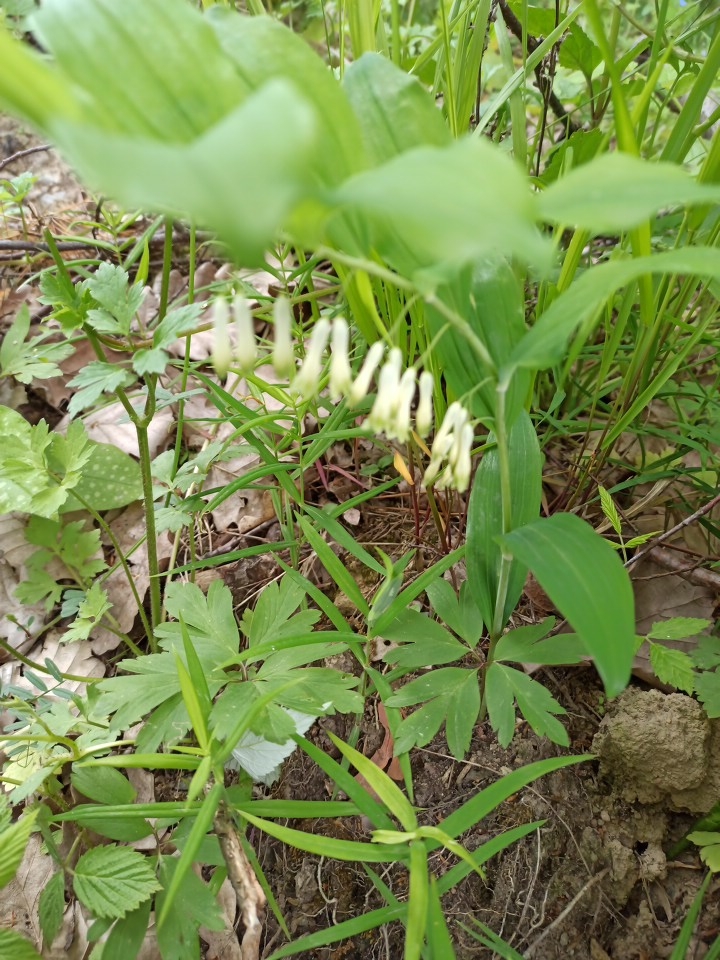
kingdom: Plantae
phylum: Tracheophyta
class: Liliopsida
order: Asparagales
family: Asparagaceae
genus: Polygonatum
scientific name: Polygonatum multiflorum
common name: Solomon's-seal
